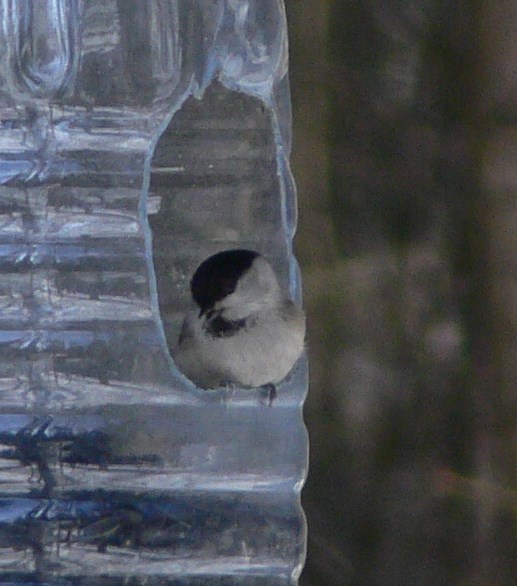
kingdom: Animalia
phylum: Chordata
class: Aves
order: Passeriformes
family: Paridae
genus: Poecile
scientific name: Poecile montanus
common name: Willow tit
